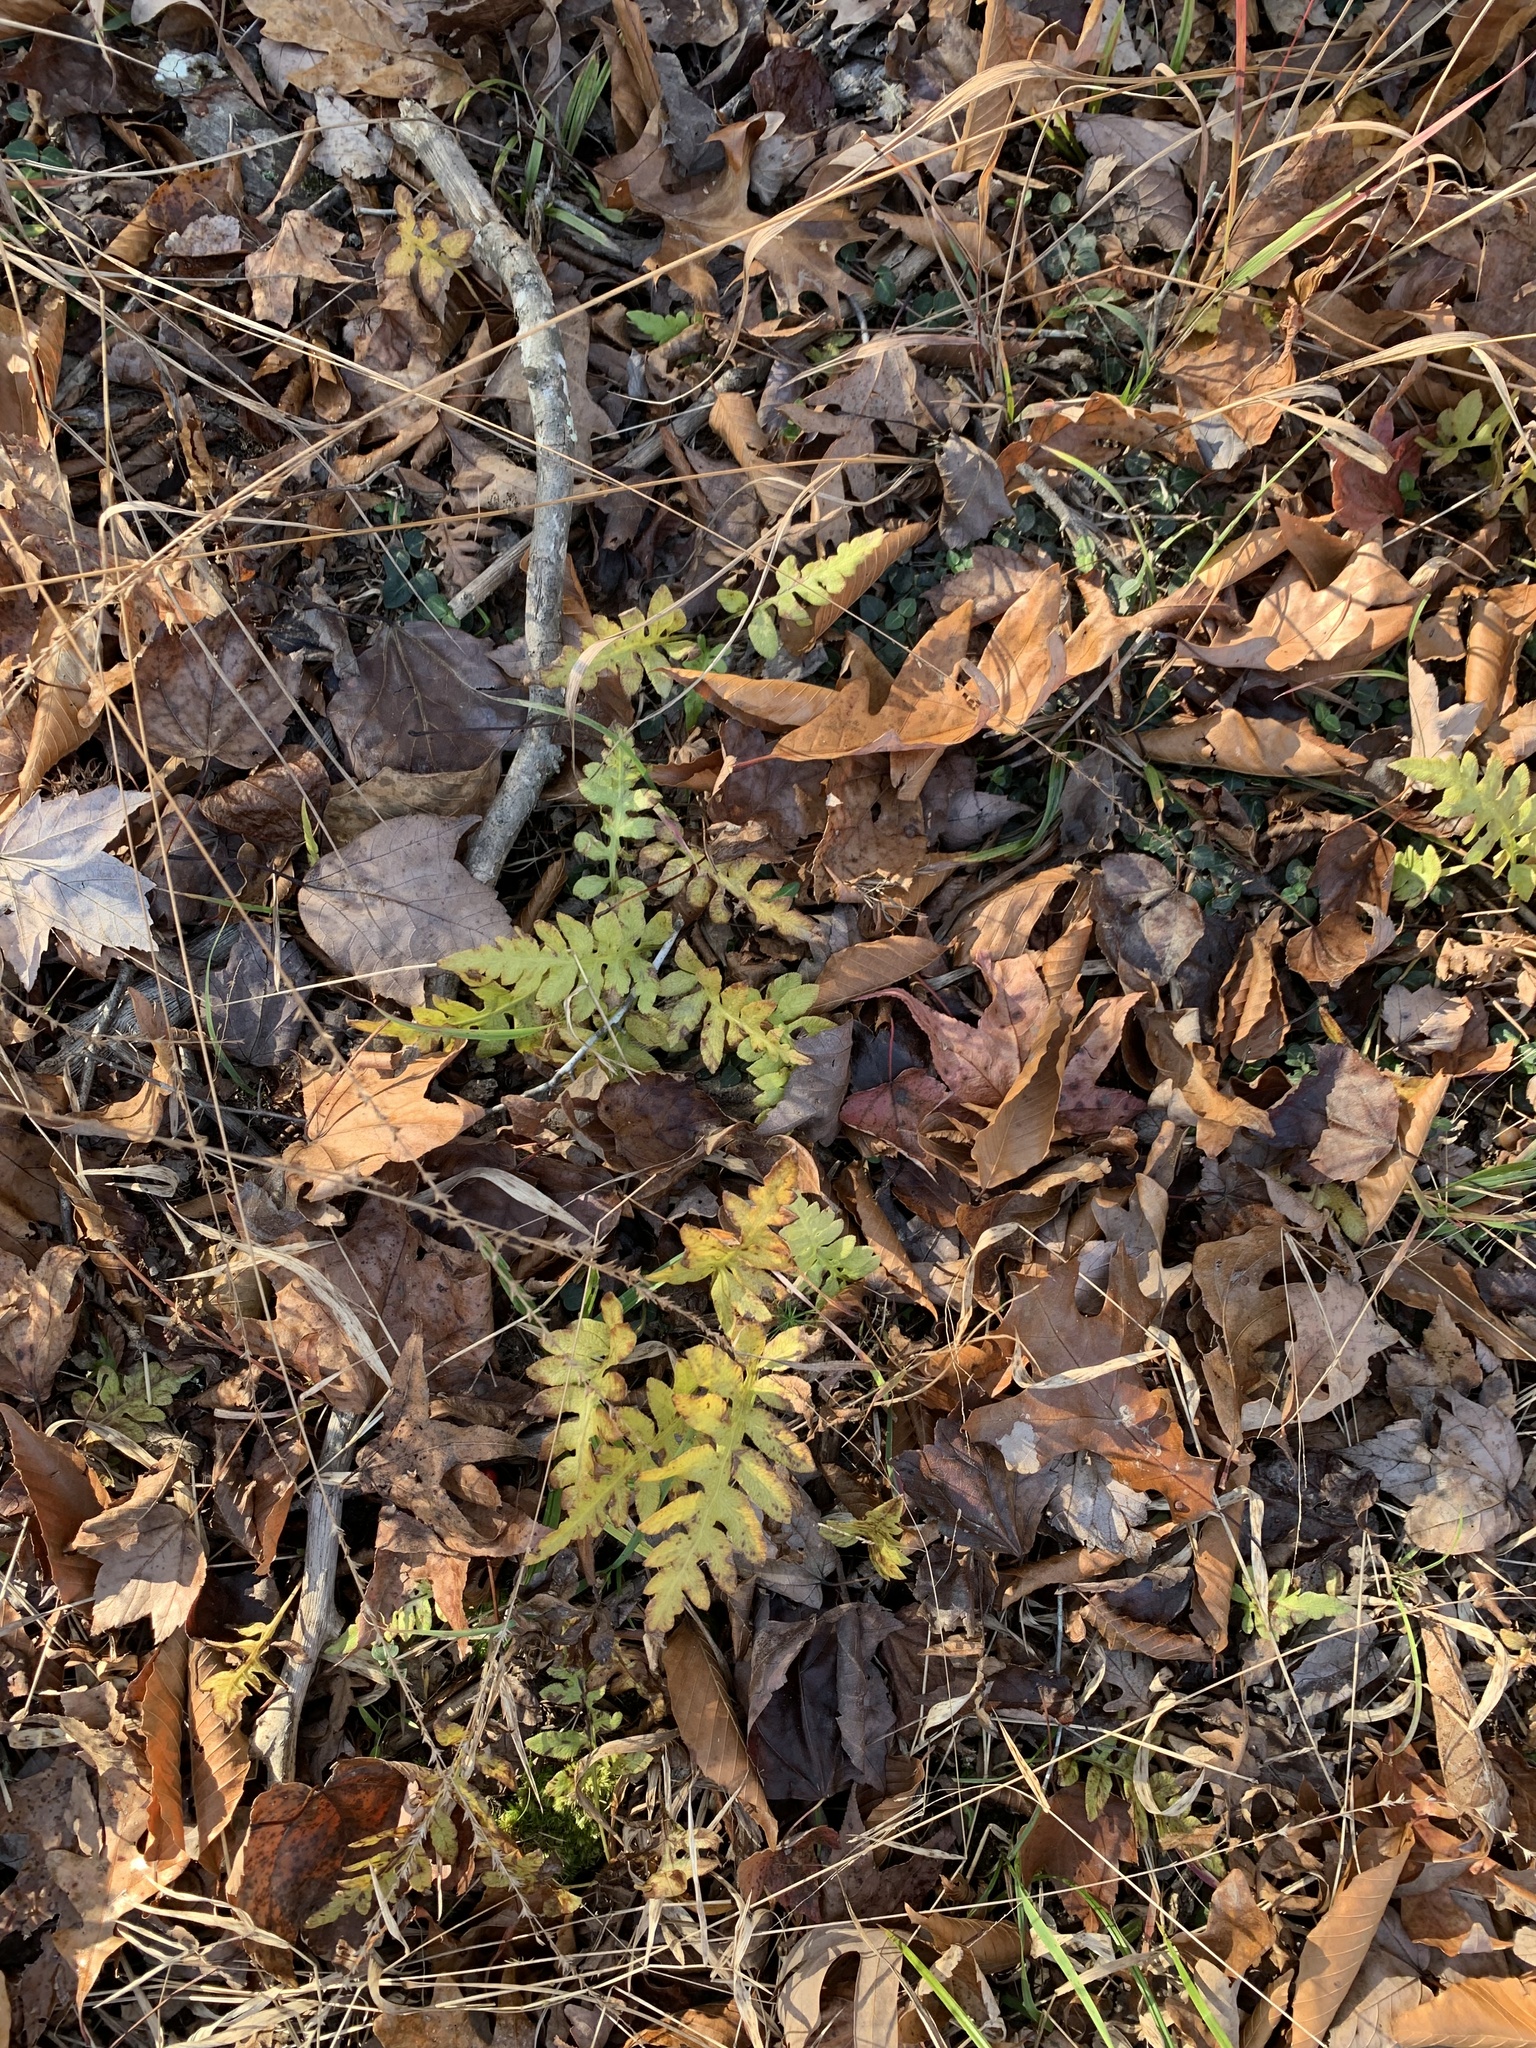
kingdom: Plantae
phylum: Tracheophyta
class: Polypodiopsida
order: Polypodiales
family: Blechnaceae
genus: Lorinseria
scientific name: Lorinseria areolata
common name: Dwarf chain fern
